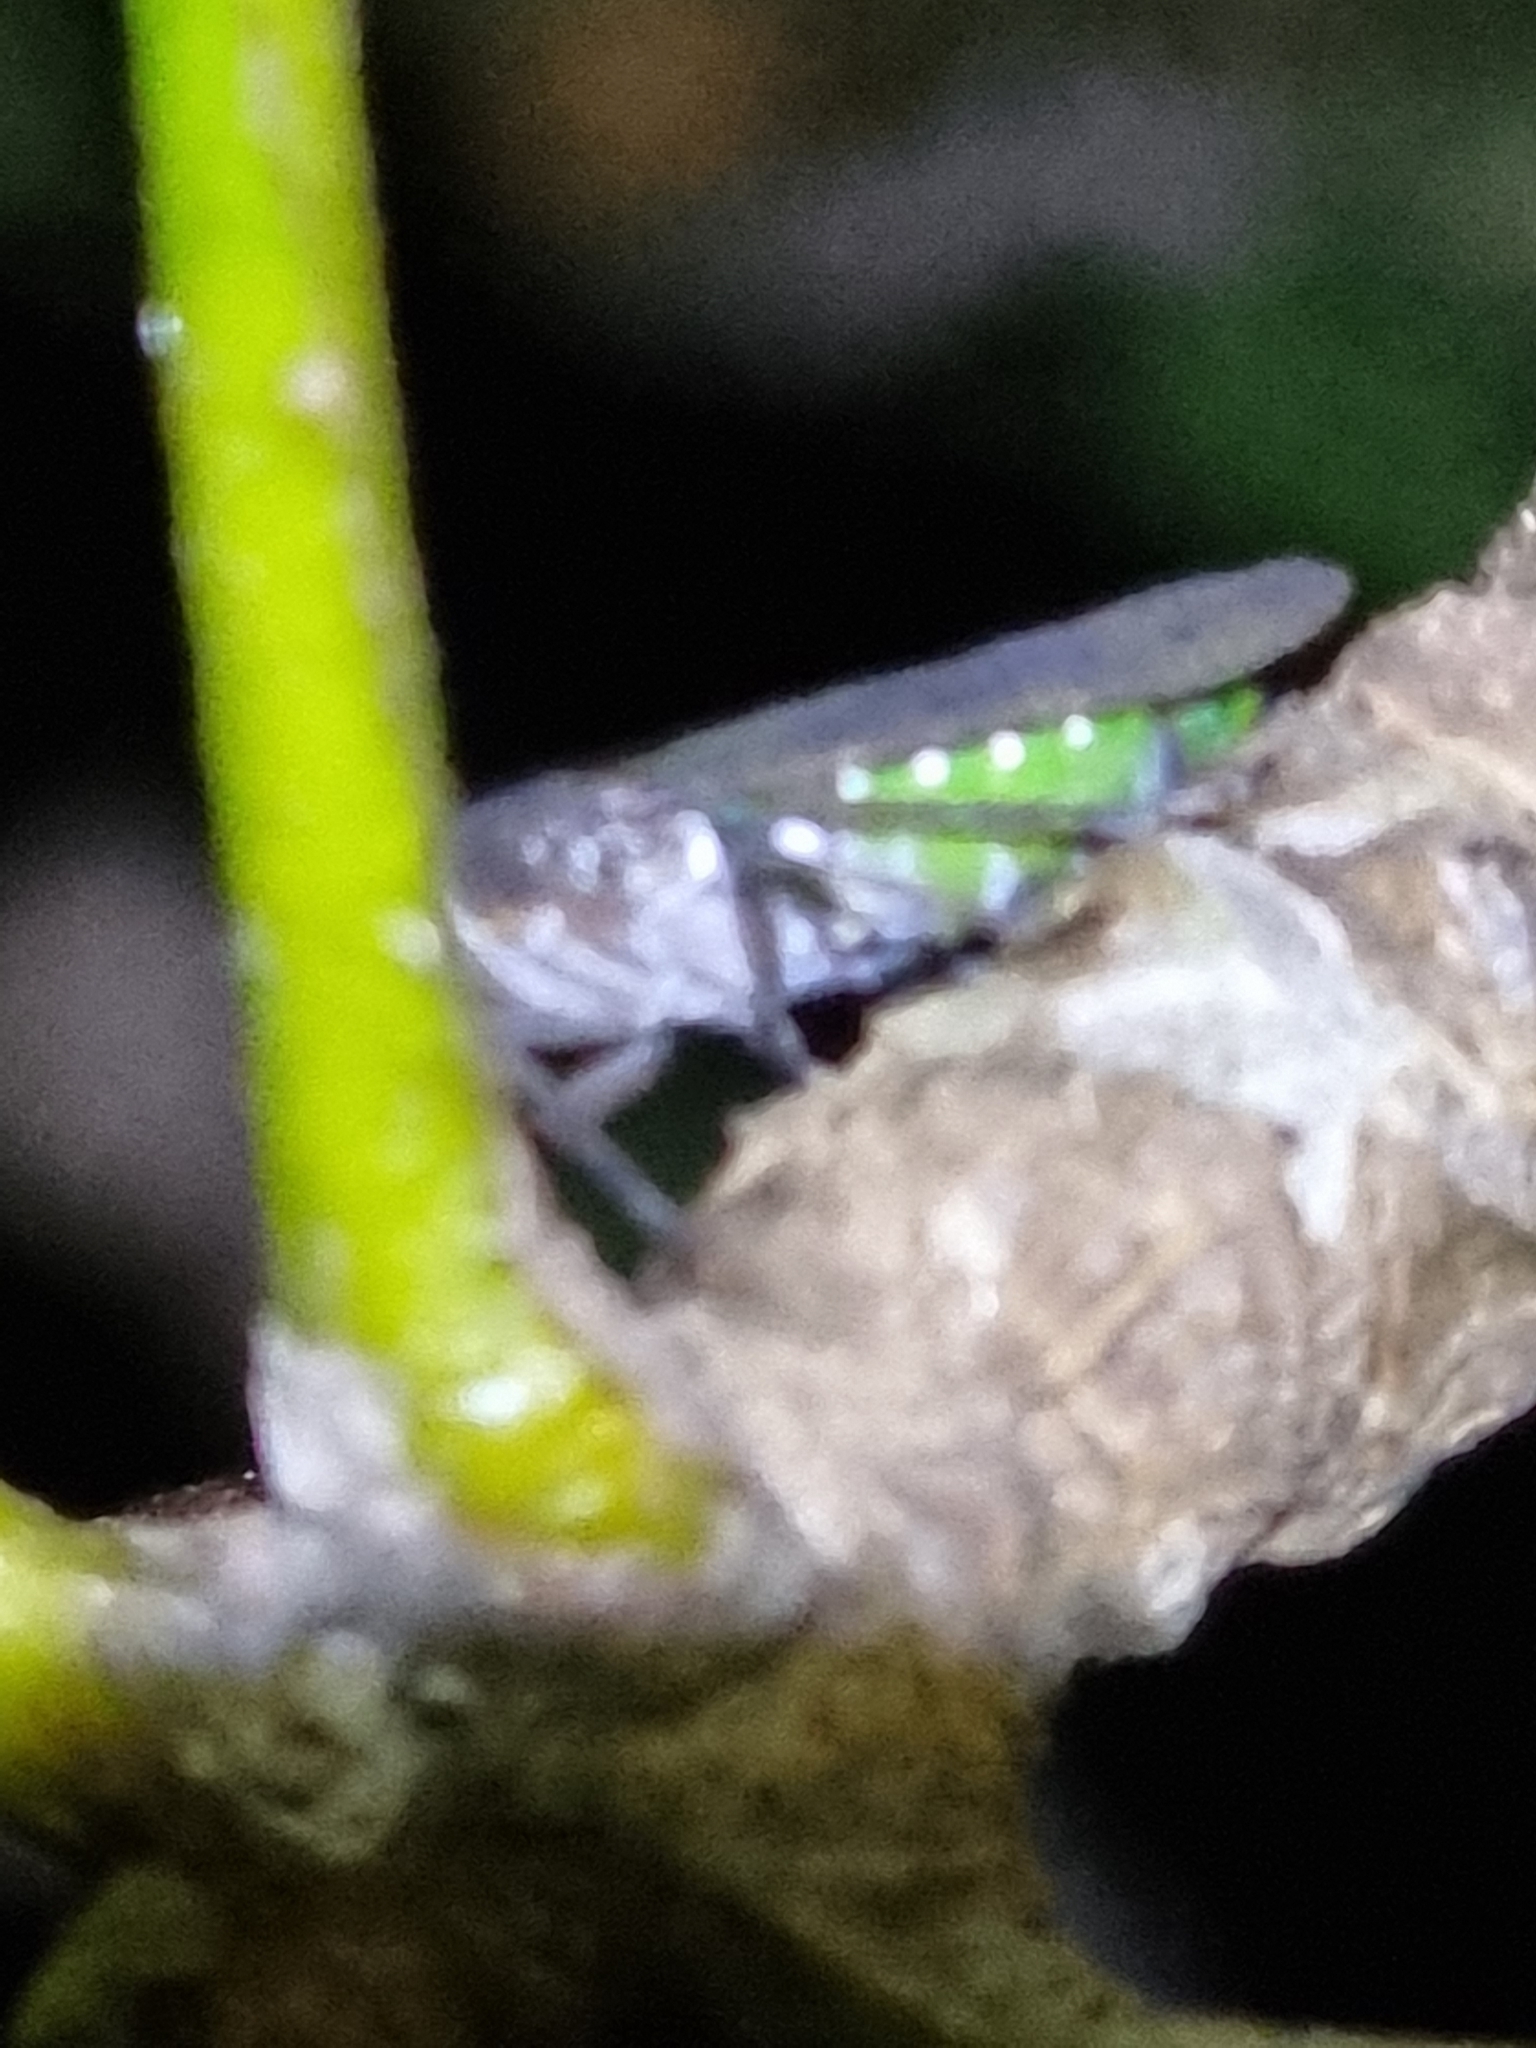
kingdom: Animalia
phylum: Arthropoda
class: Insecta
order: Hemiptera
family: Fulgoridae
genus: Desudaba
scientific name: Desudaba psittacus
